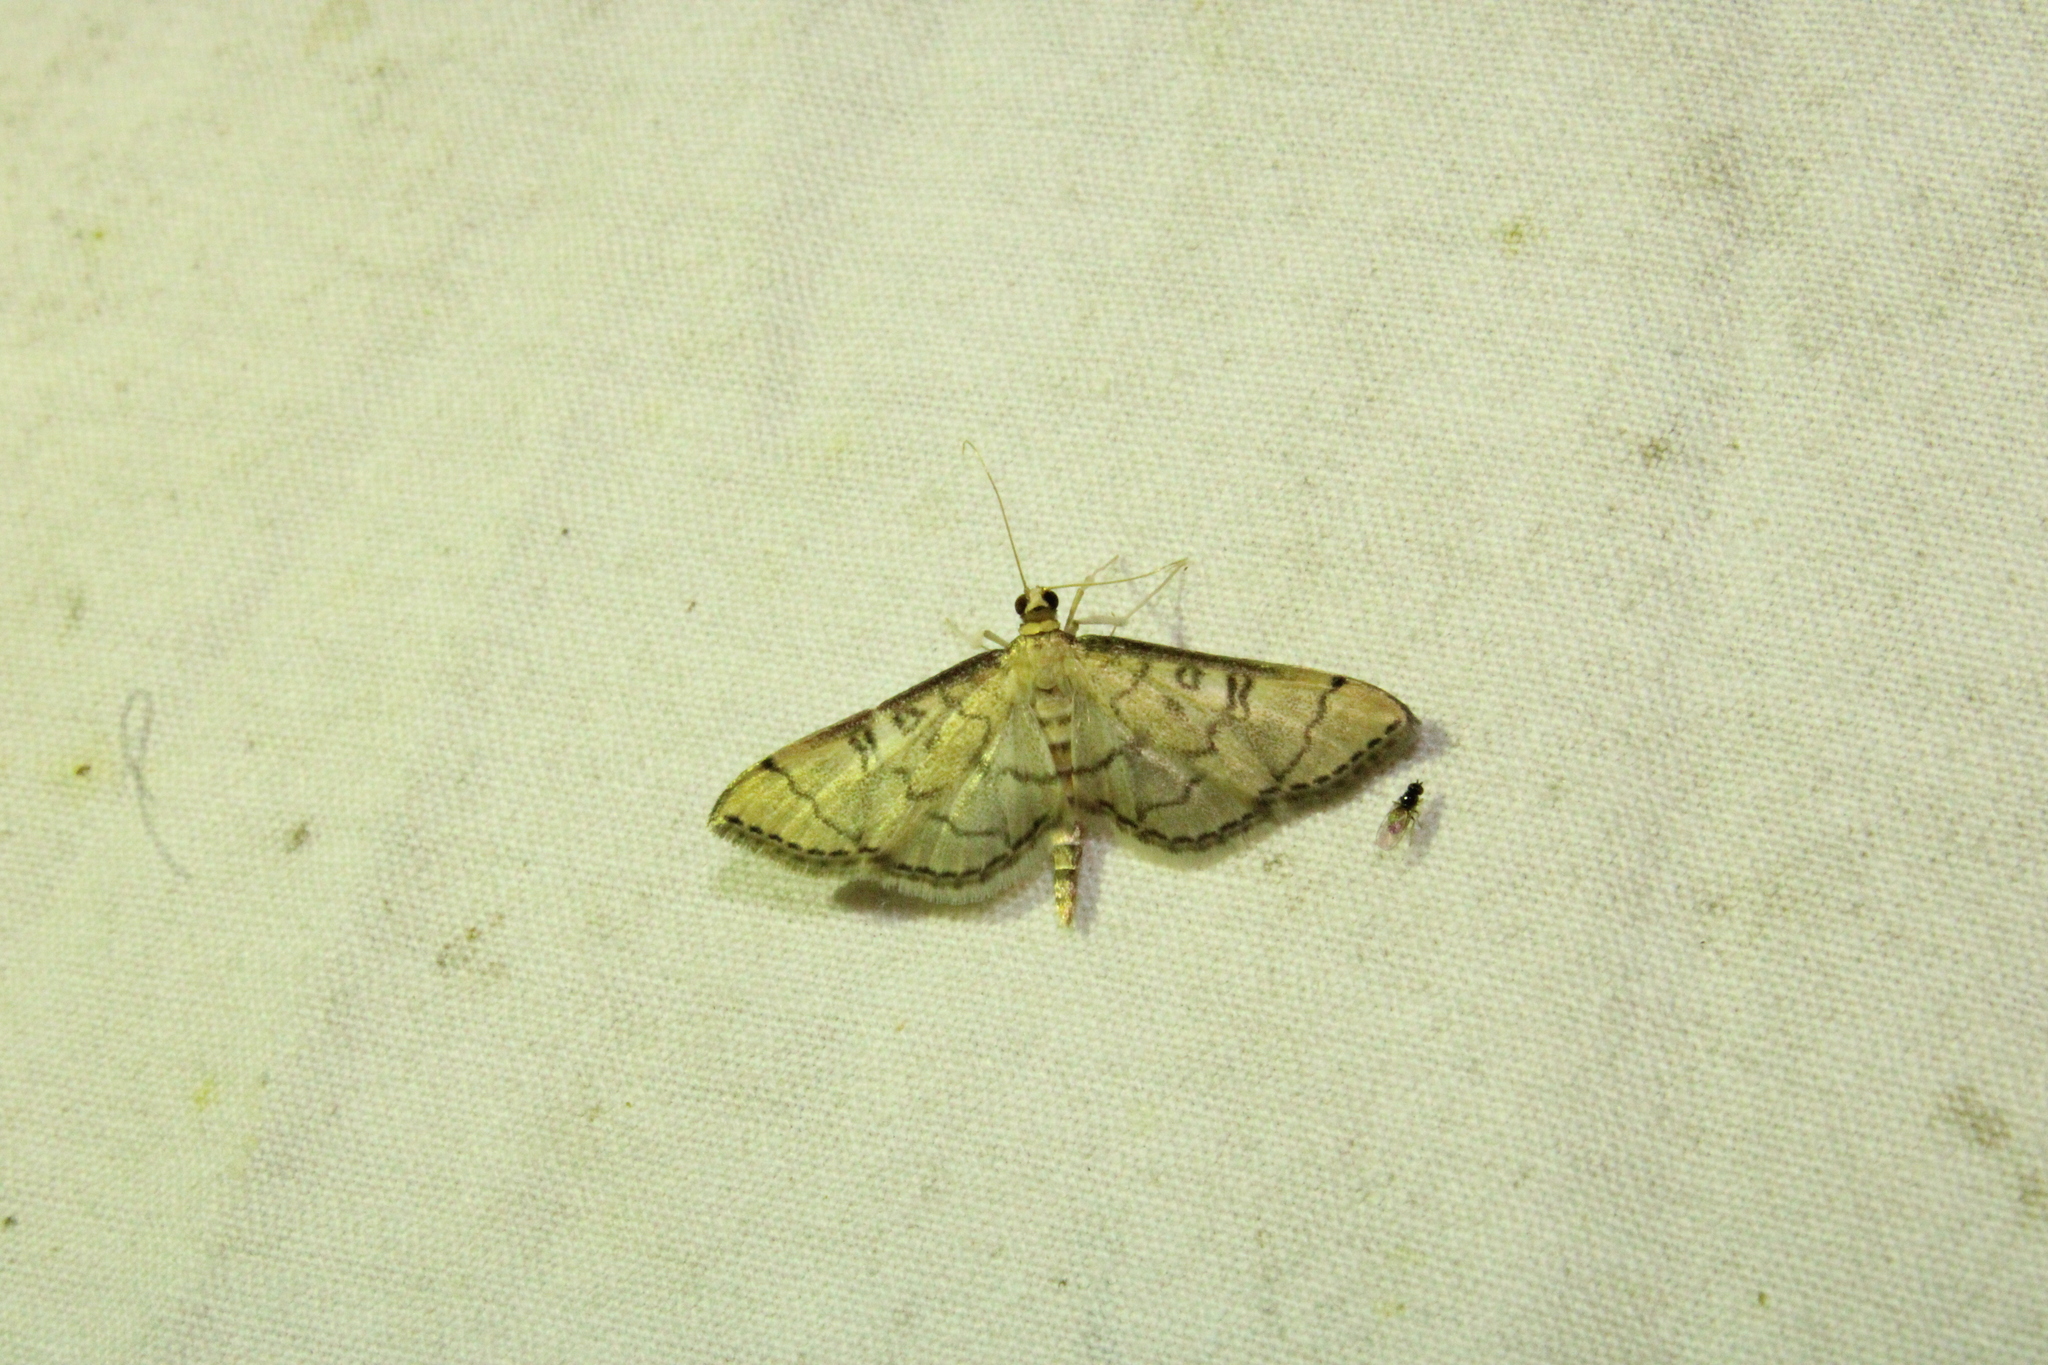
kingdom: Animalia
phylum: Arthropoda
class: Insecta
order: Lepidoptera
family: Crambidae
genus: Lamprosema
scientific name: Lamprosema Blepharomastix ranalis
